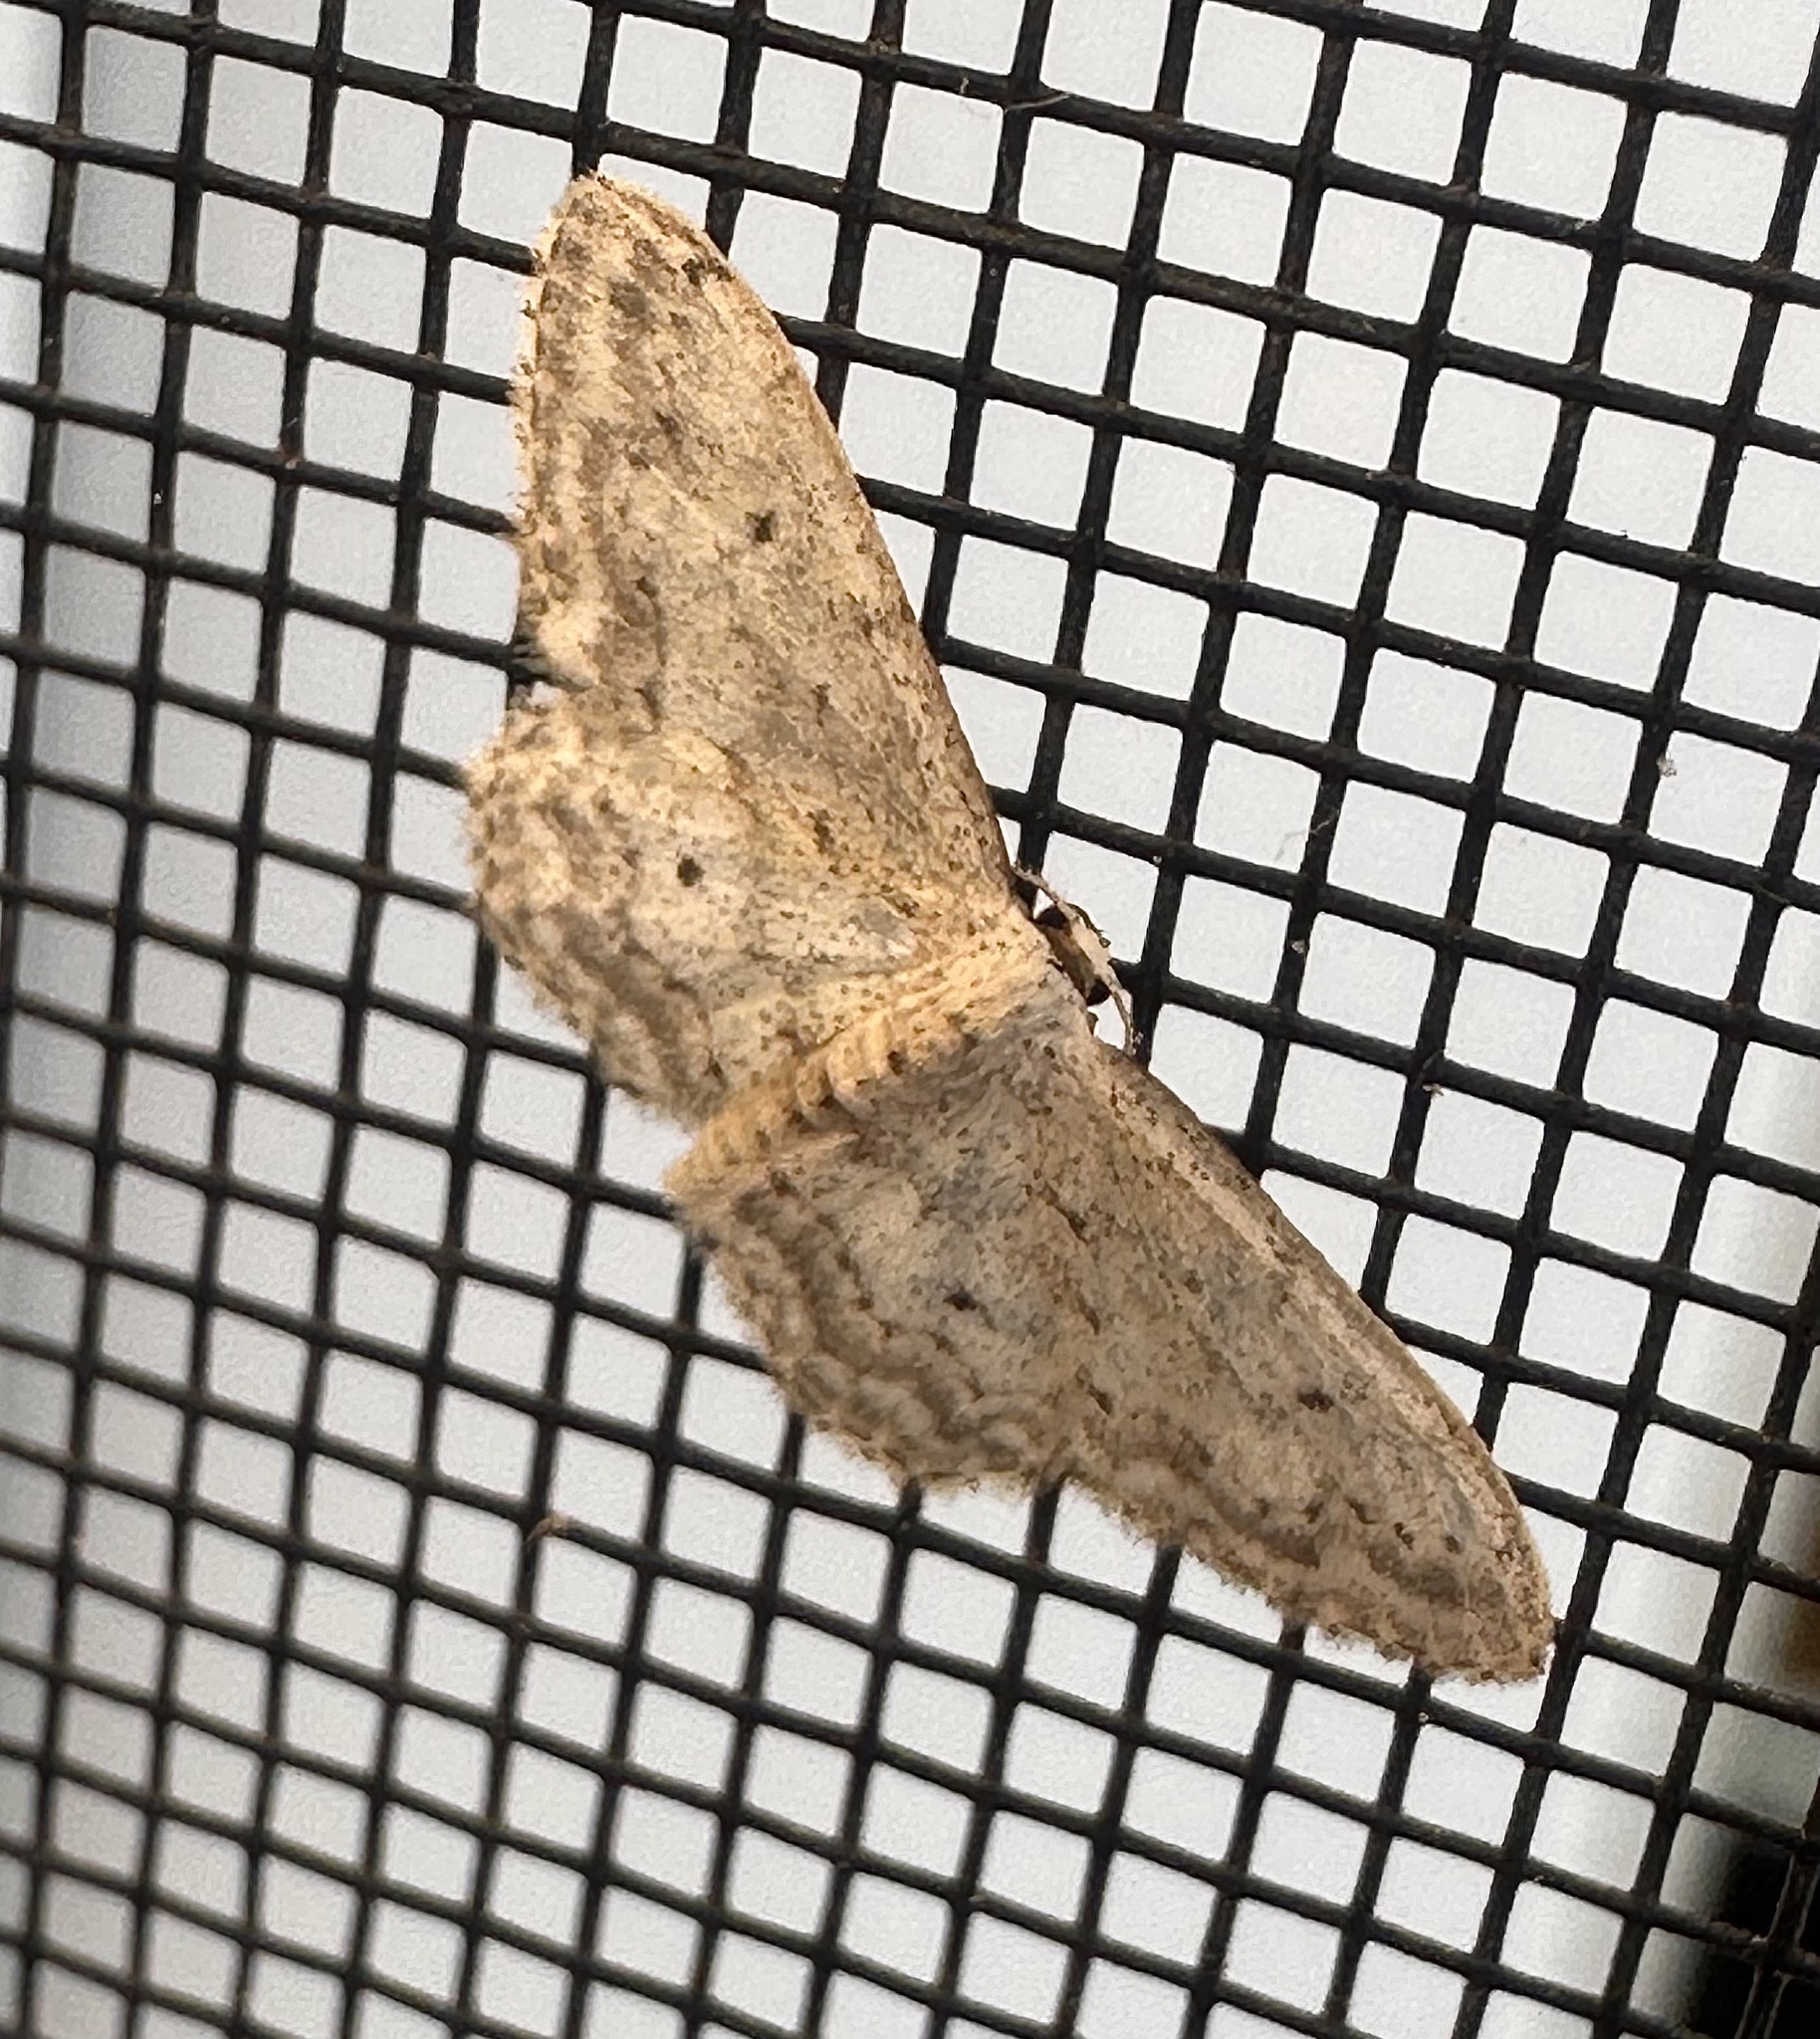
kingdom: Animalia
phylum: Arthropoda
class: Insecta
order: Lepidoptera
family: Geometridae
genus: Idaea
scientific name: Idaea seriata
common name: Small dusty wave
